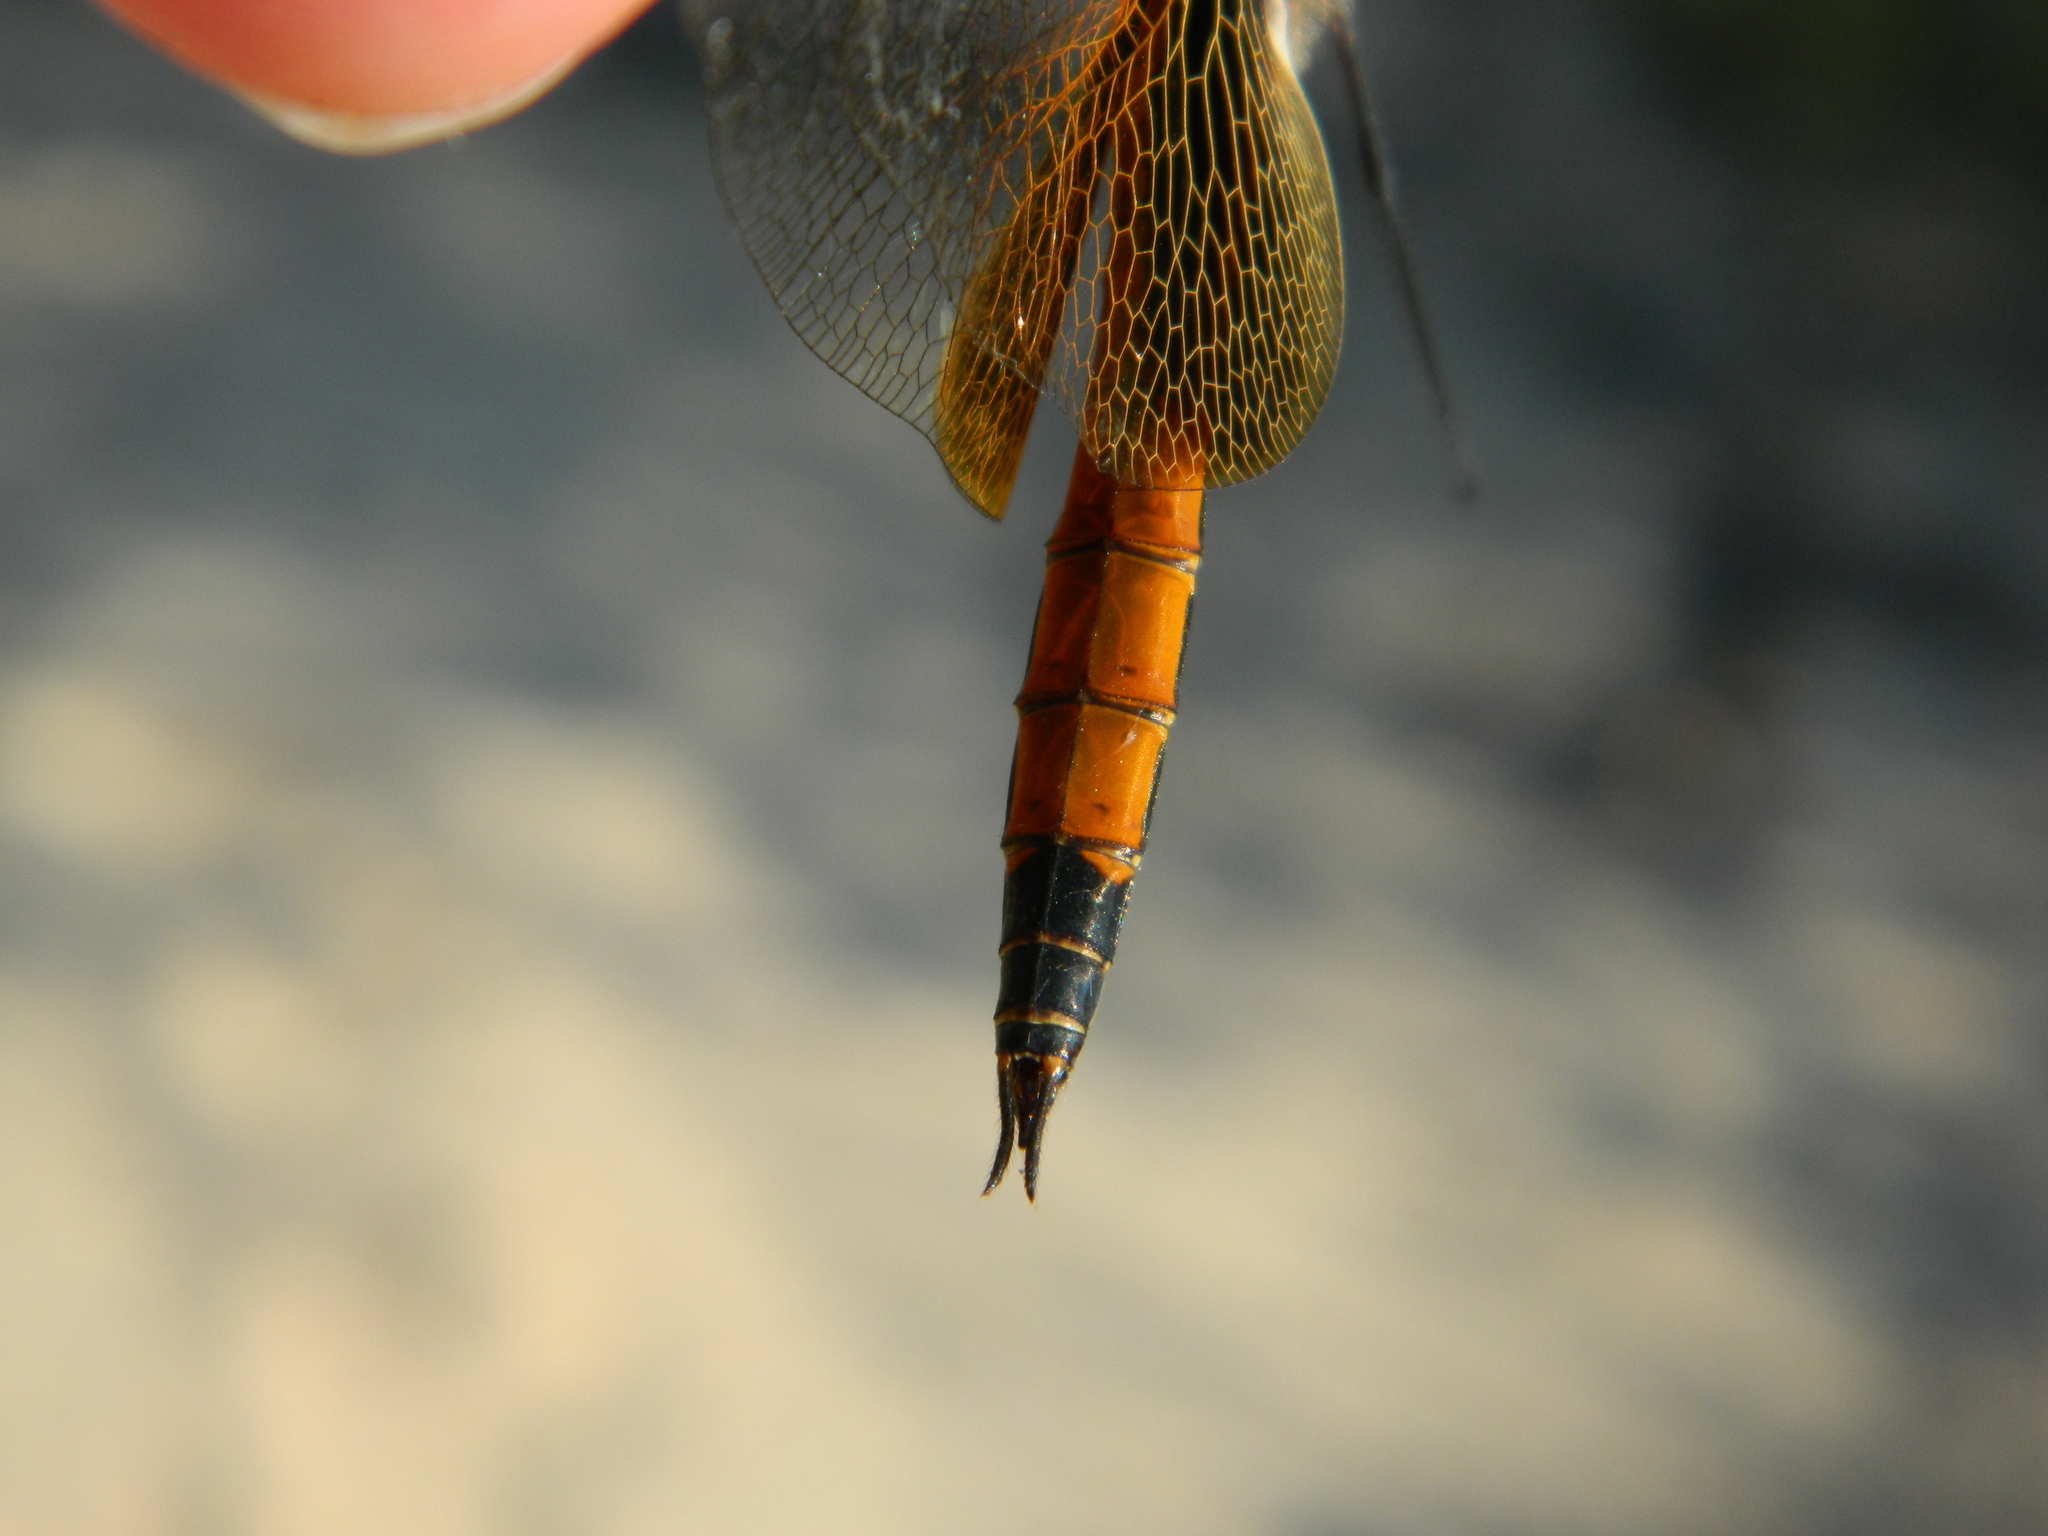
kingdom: Animalia
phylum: Arthropoda
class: Insecta
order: Odonata
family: Libellulidae
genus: Tramea
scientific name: Tramea darwini
